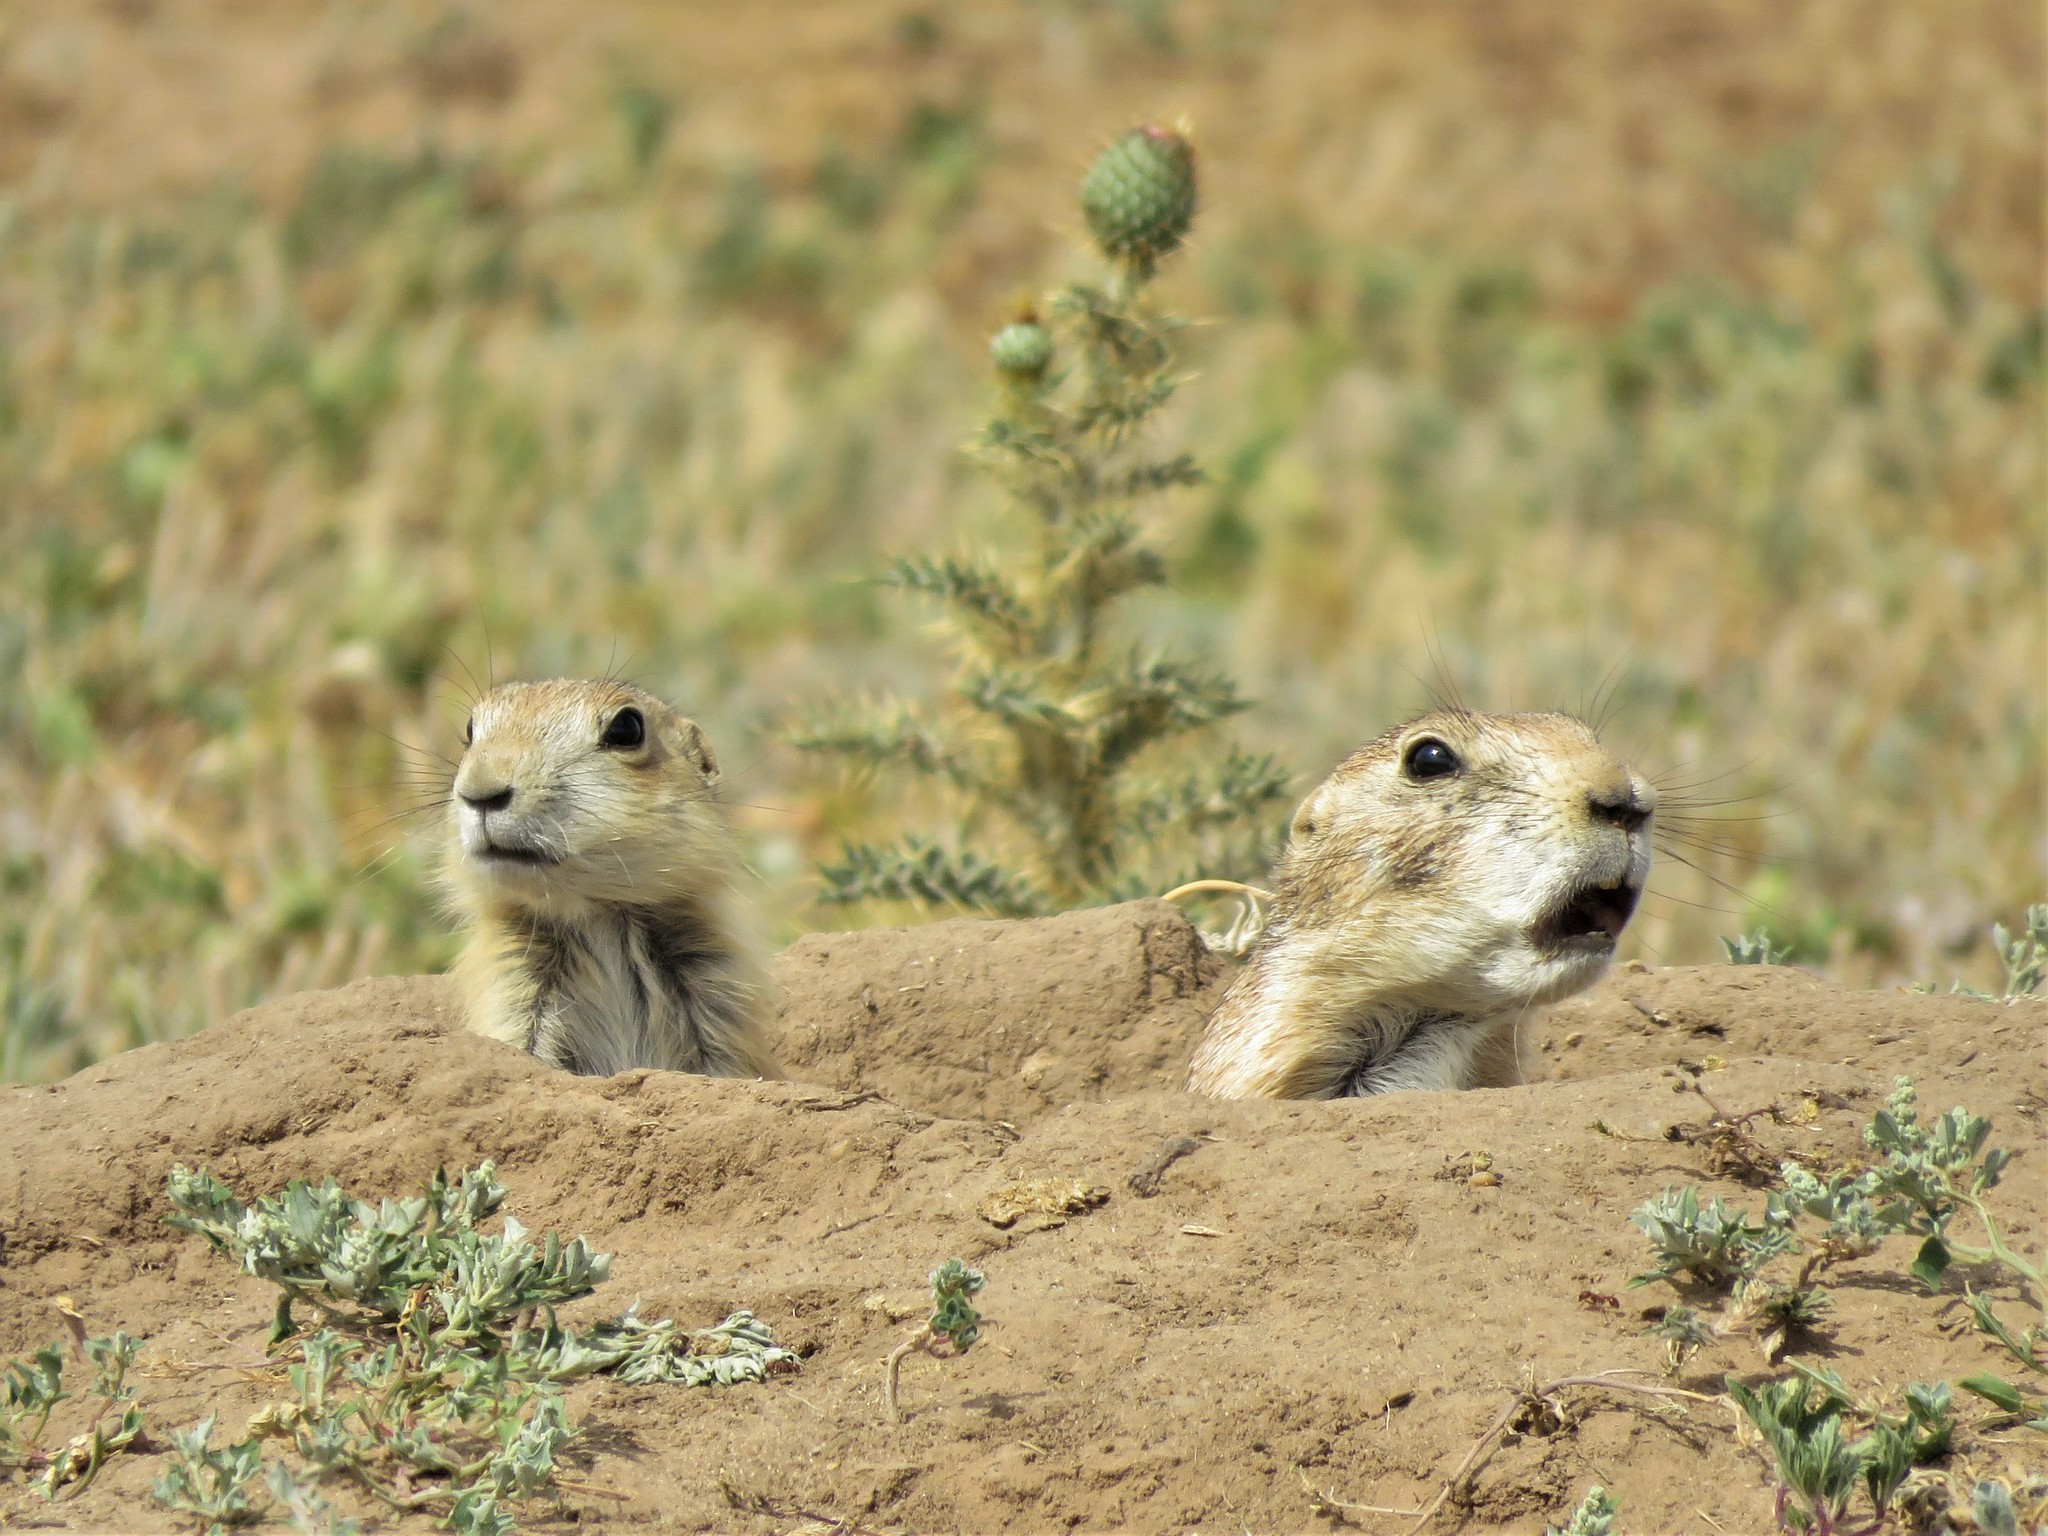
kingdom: Animalia
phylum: Chordata
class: Mammalia
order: Rodentia
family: Sciuridae
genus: Cynomys
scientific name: Cynomys ludovicianus
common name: Black-tailed prairie dog
